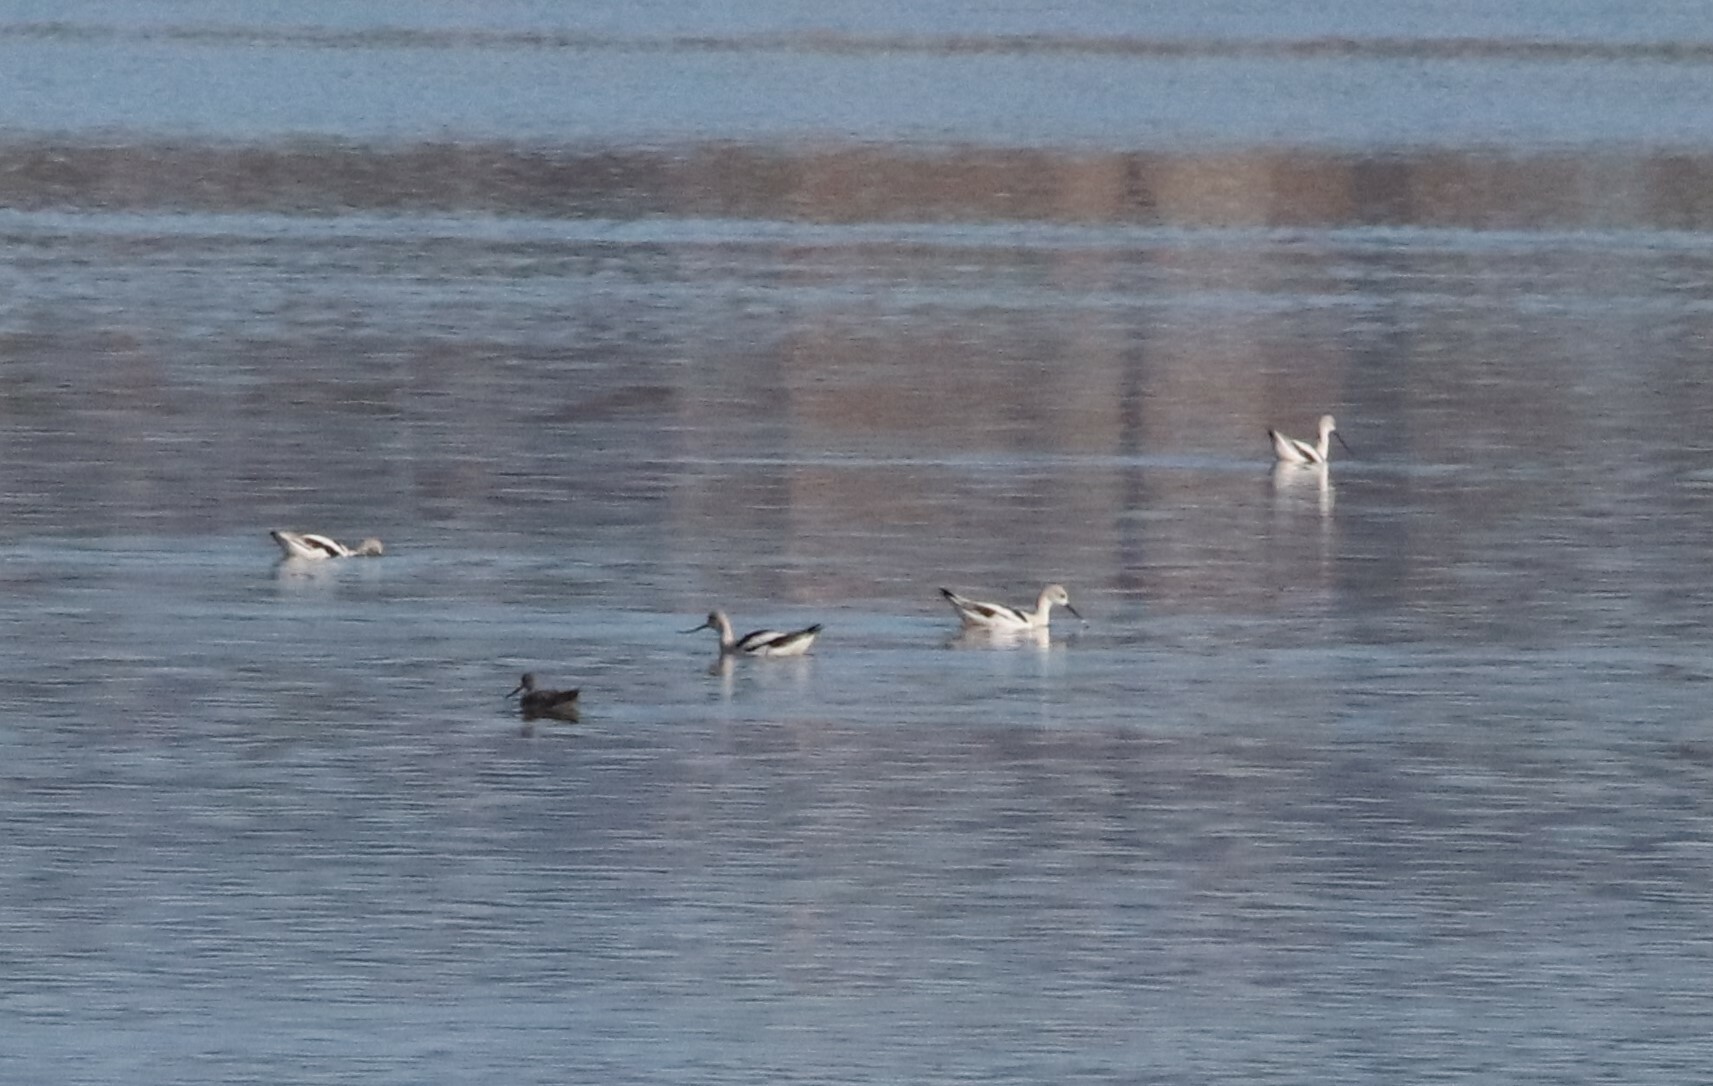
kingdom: Animalia
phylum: Chordata
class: Aves
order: Charadriiformes
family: Recurvirostridae
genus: Recurvirostra
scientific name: Recurvirostra americana
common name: American avocet
